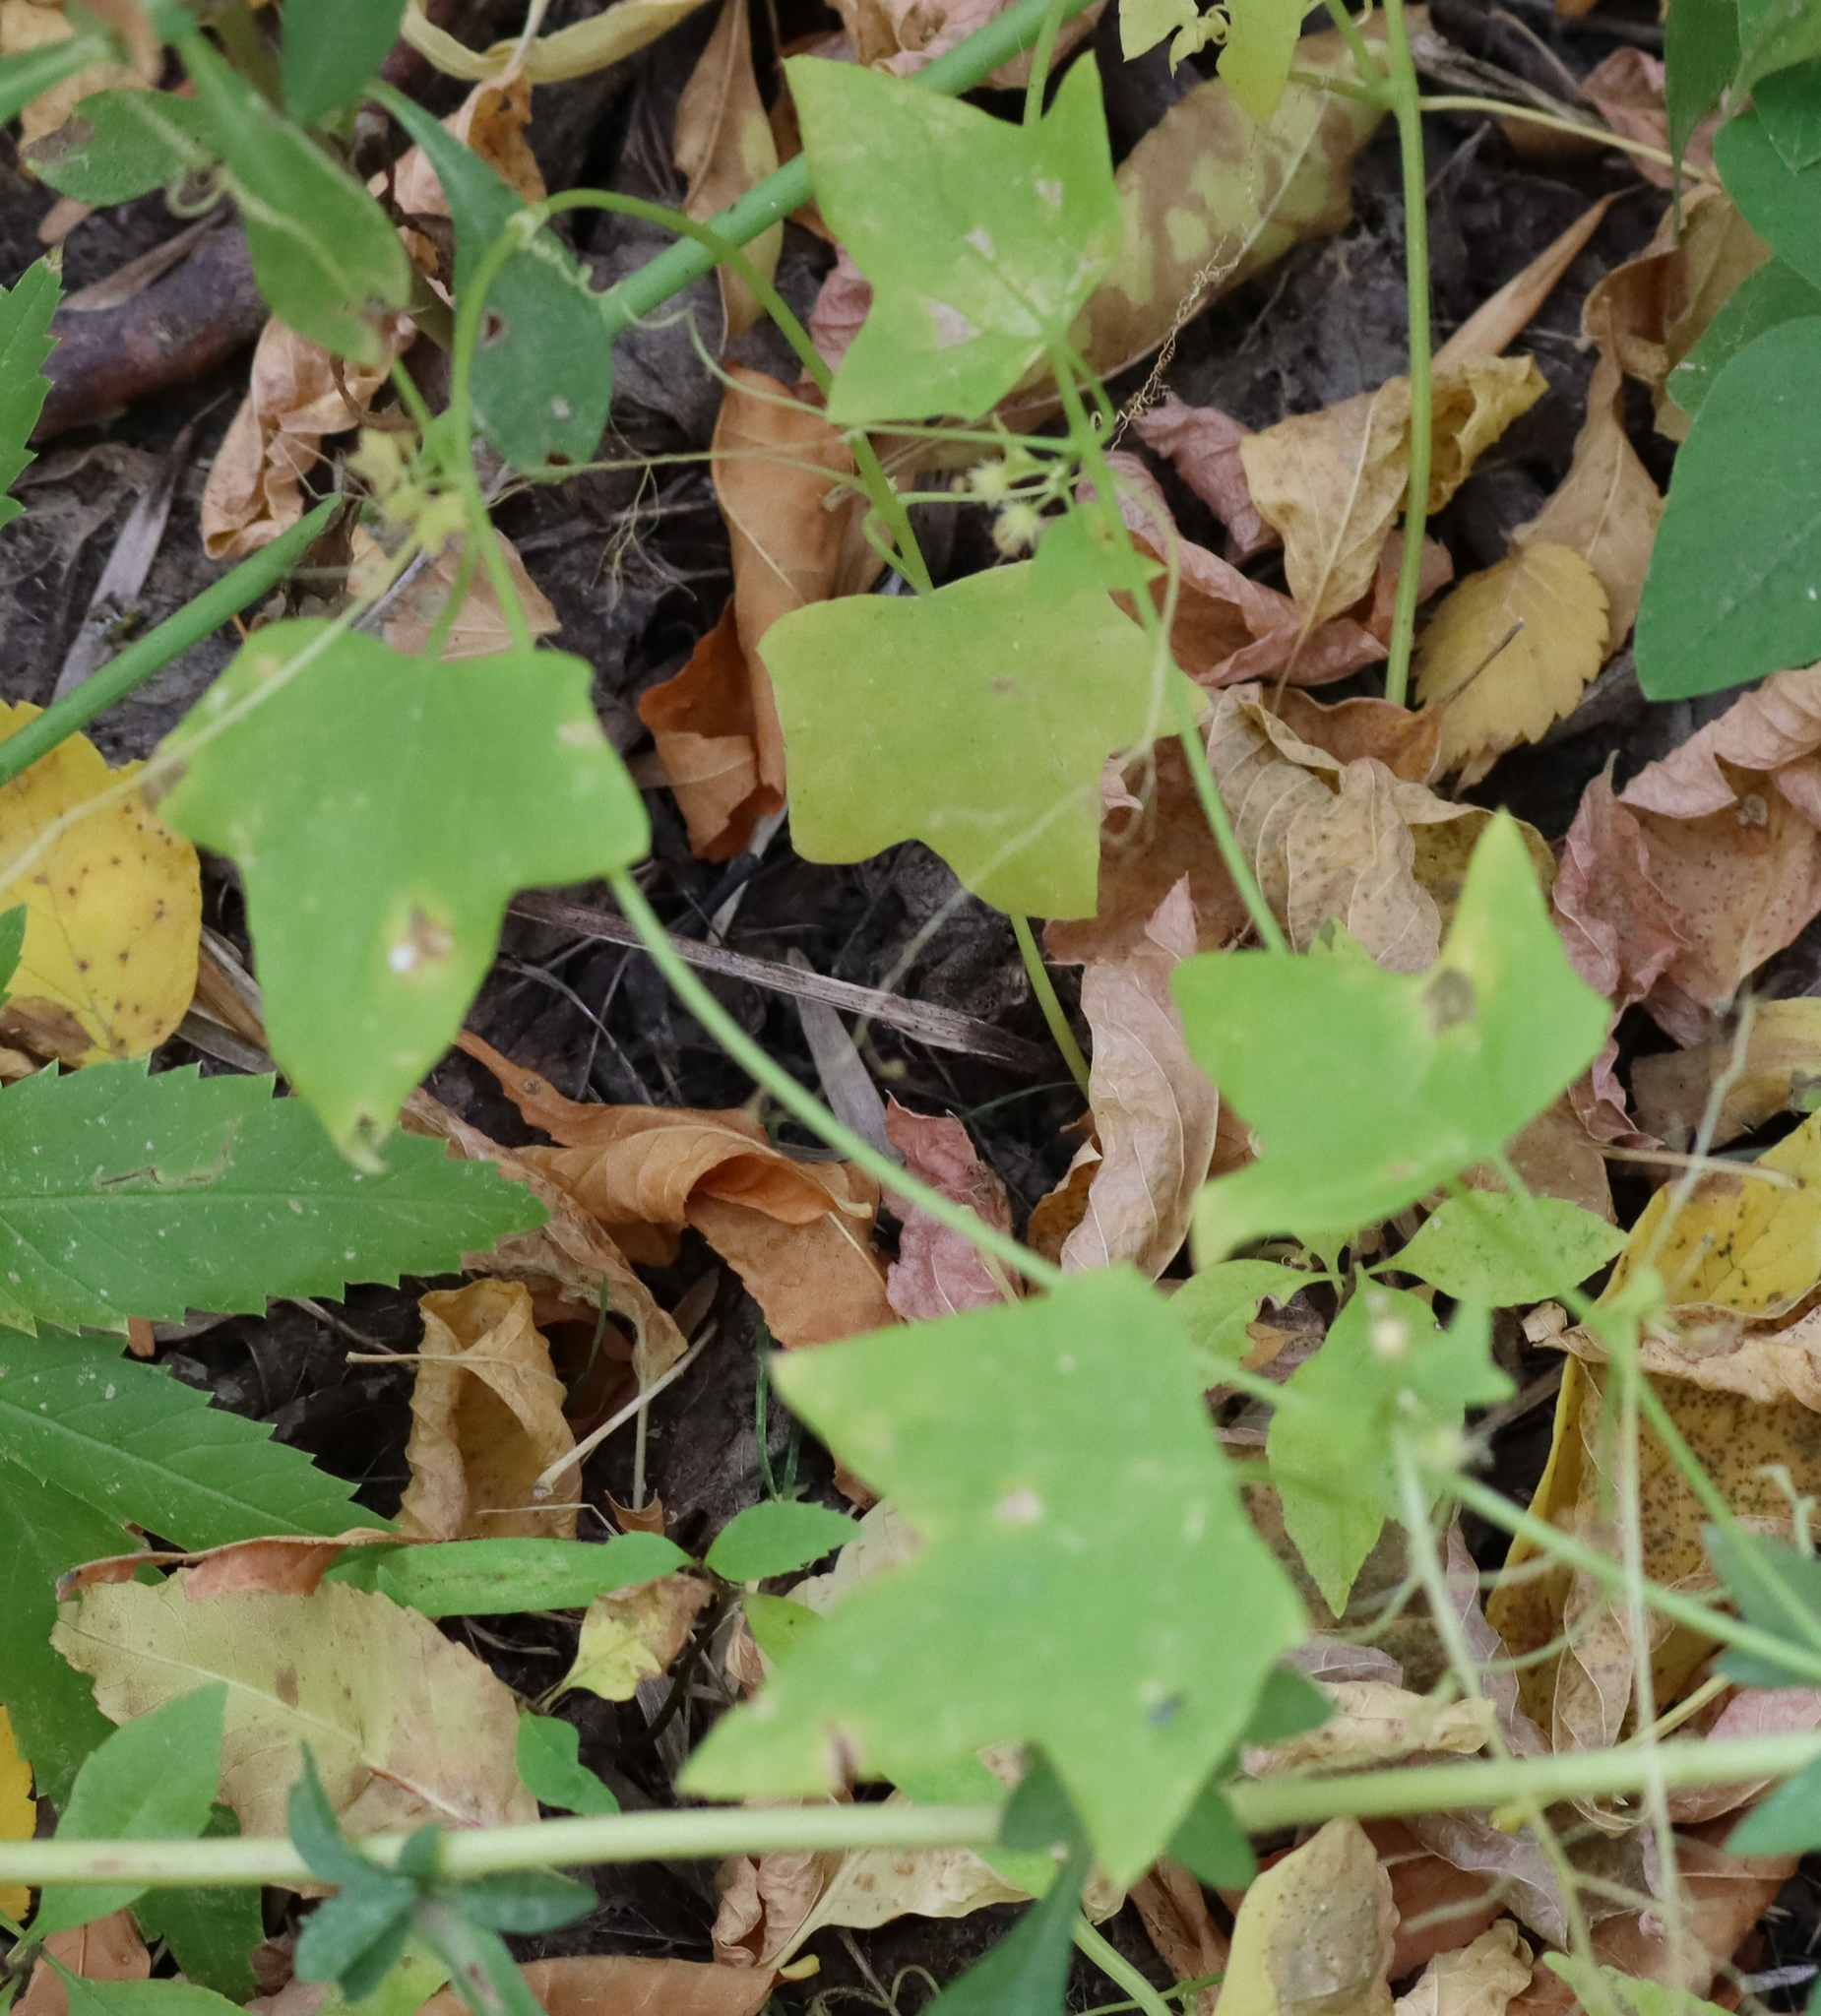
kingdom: Plantae
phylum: Tracheophyta
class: Magnoliopsida
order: Cucurbitales
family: Cucurbitaceae
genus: Echinocystis
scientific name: Echinocystis lobata
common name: Wild cucumber
